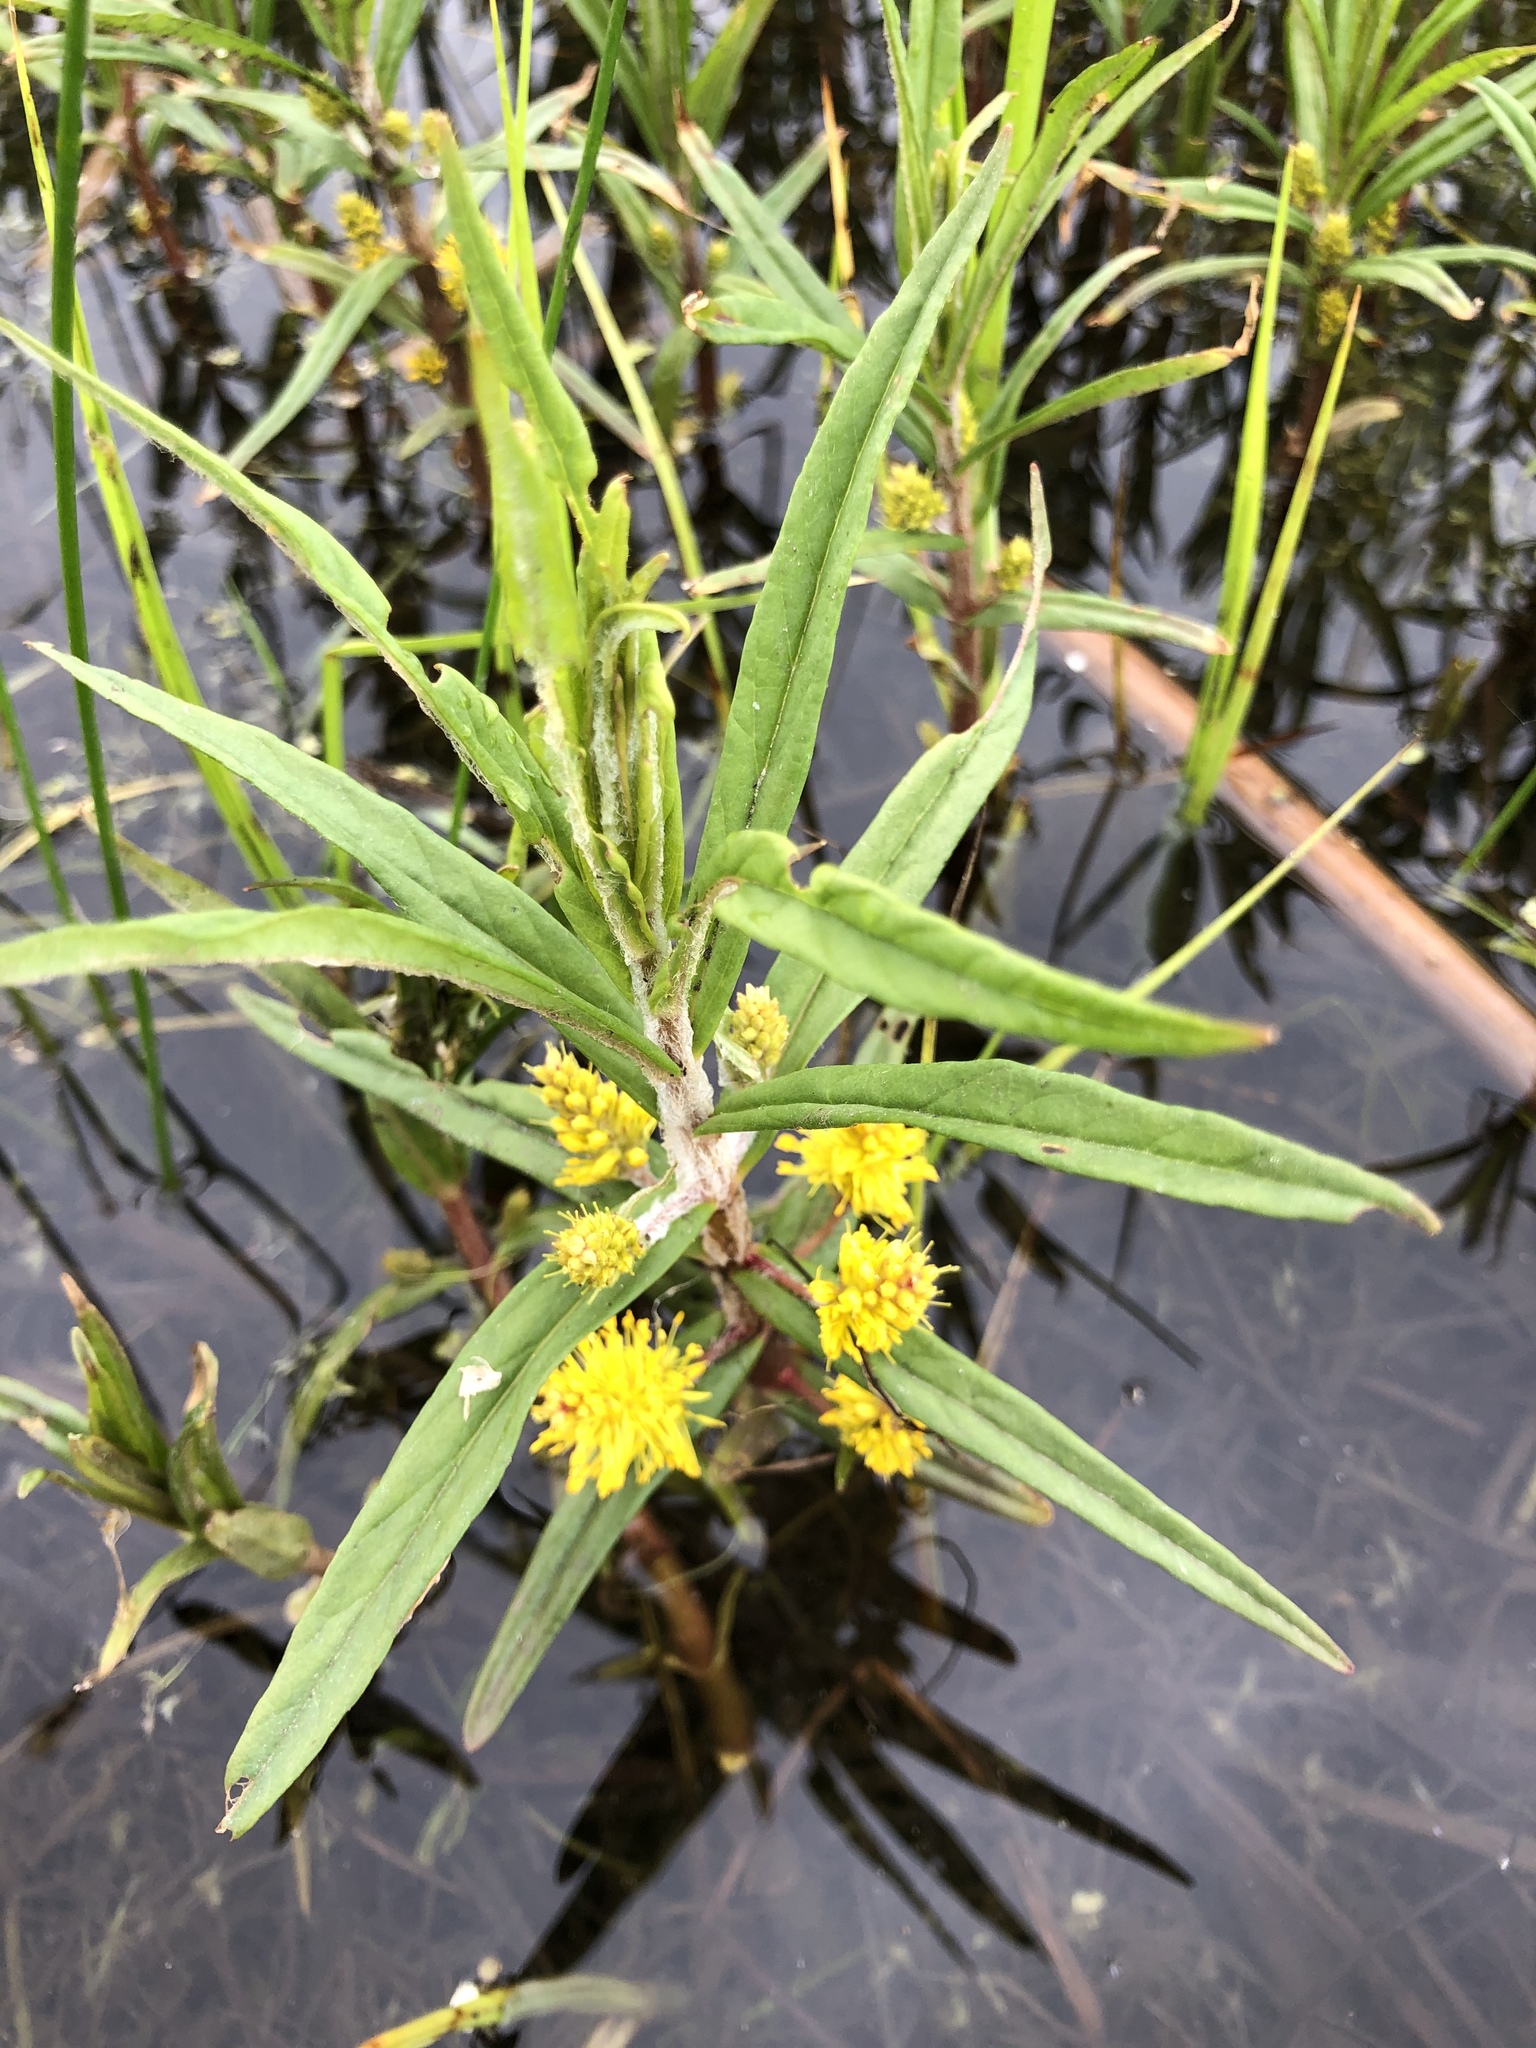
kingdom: Plantae
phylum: Tracheophyta
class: Magnoliopsida
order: Ericales
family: Primulaceae
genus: Lysimachia
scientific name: Lysimachia thyrsiflora
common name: Tufted loosestrife
